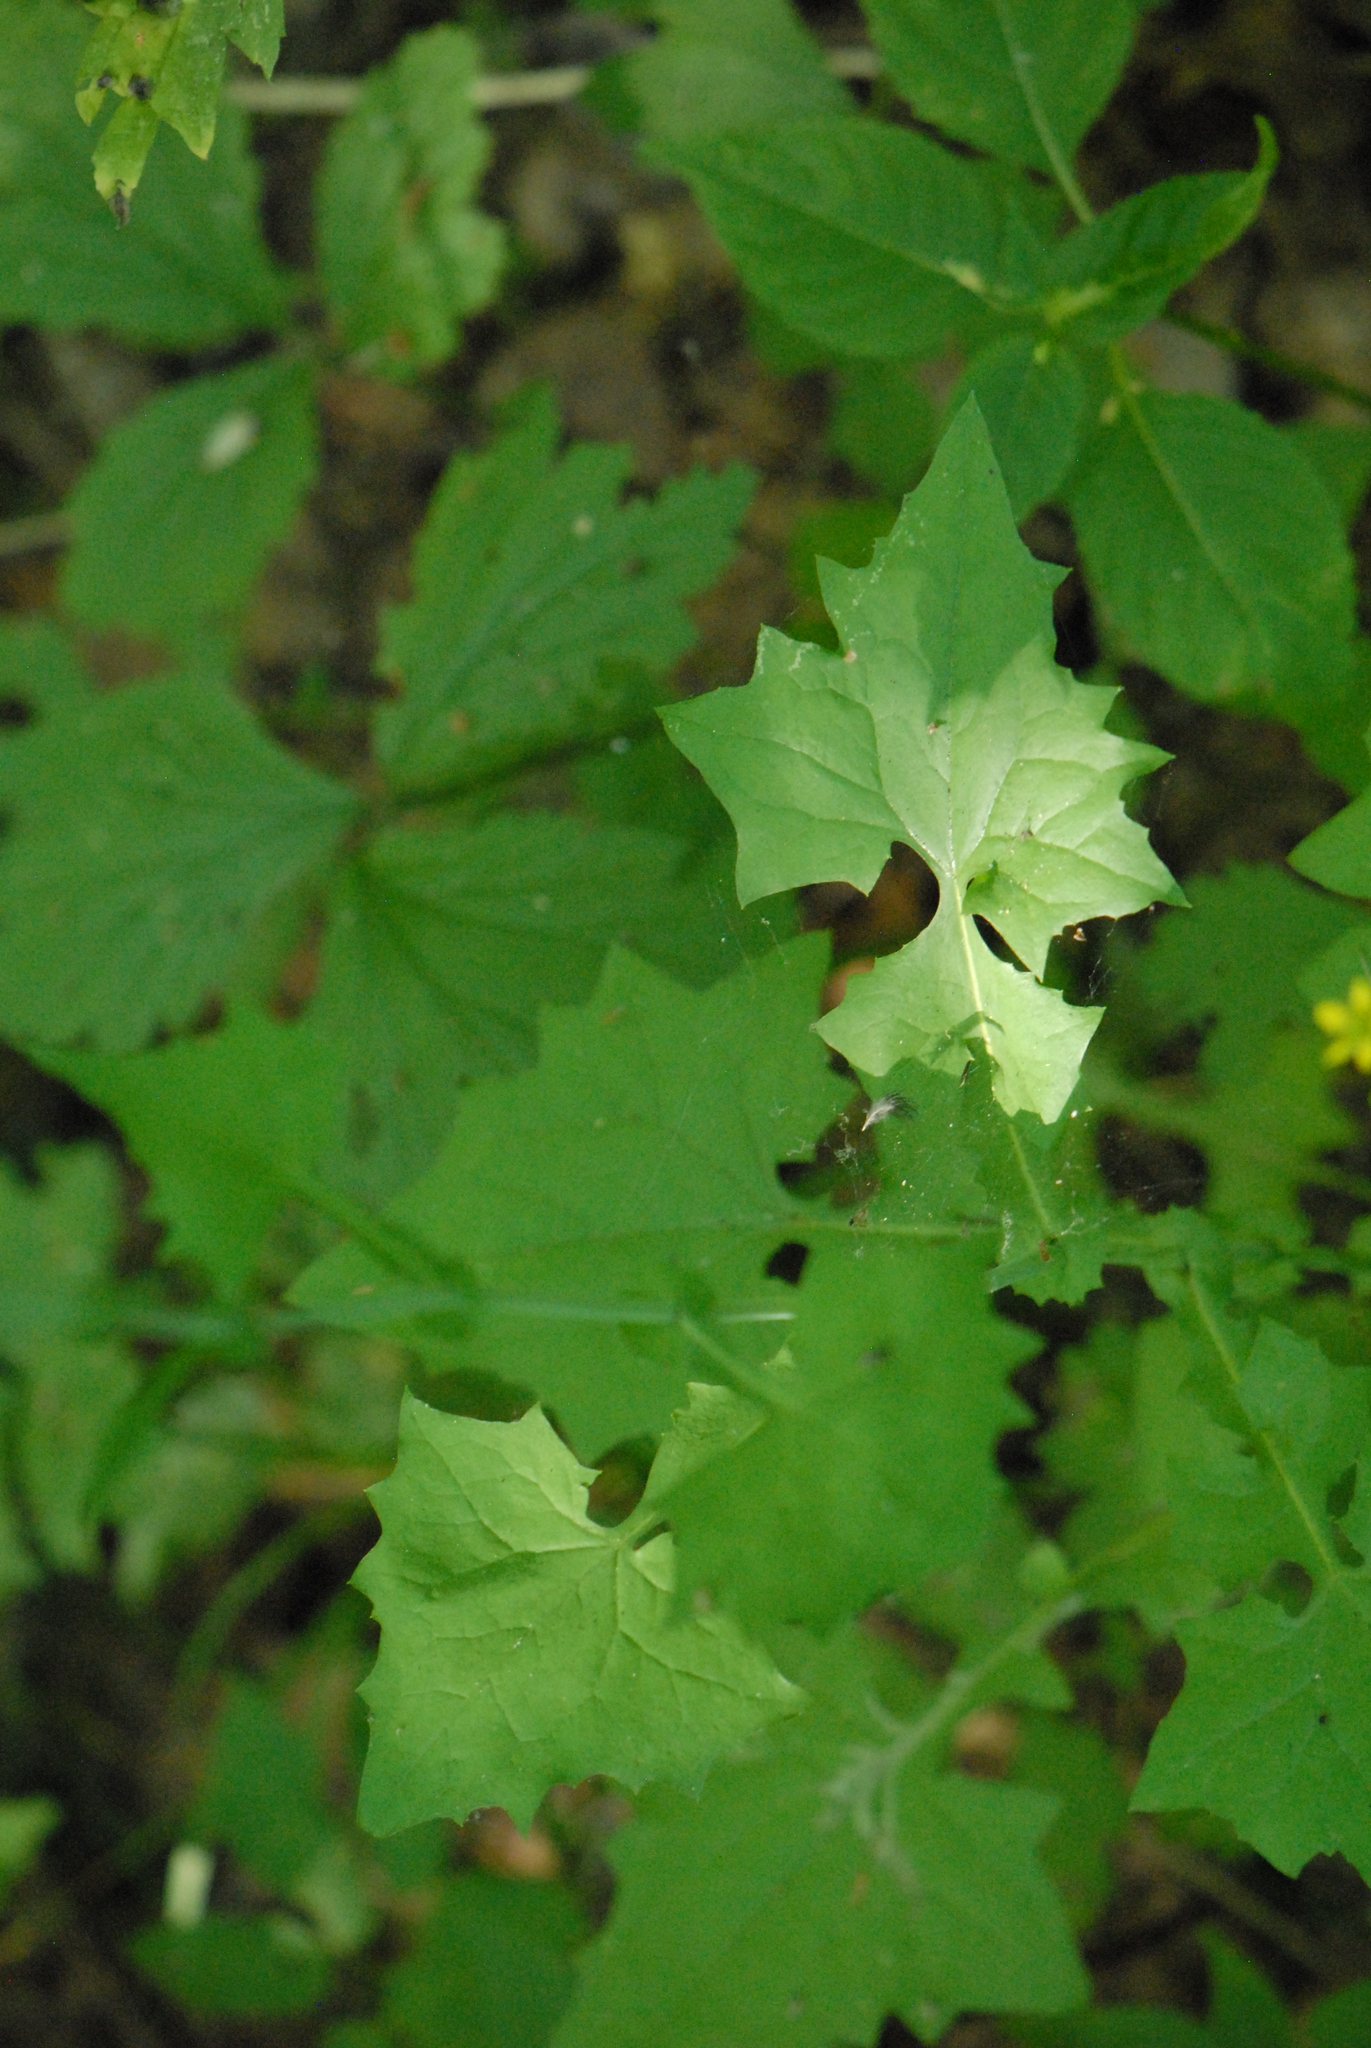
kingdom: Plantae
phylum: Tracheophyta
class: Magnoliopsida
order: Asterales
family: Asteraceae
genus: Mycelis
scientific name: Mycelis muralis
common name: Wall lettuce
